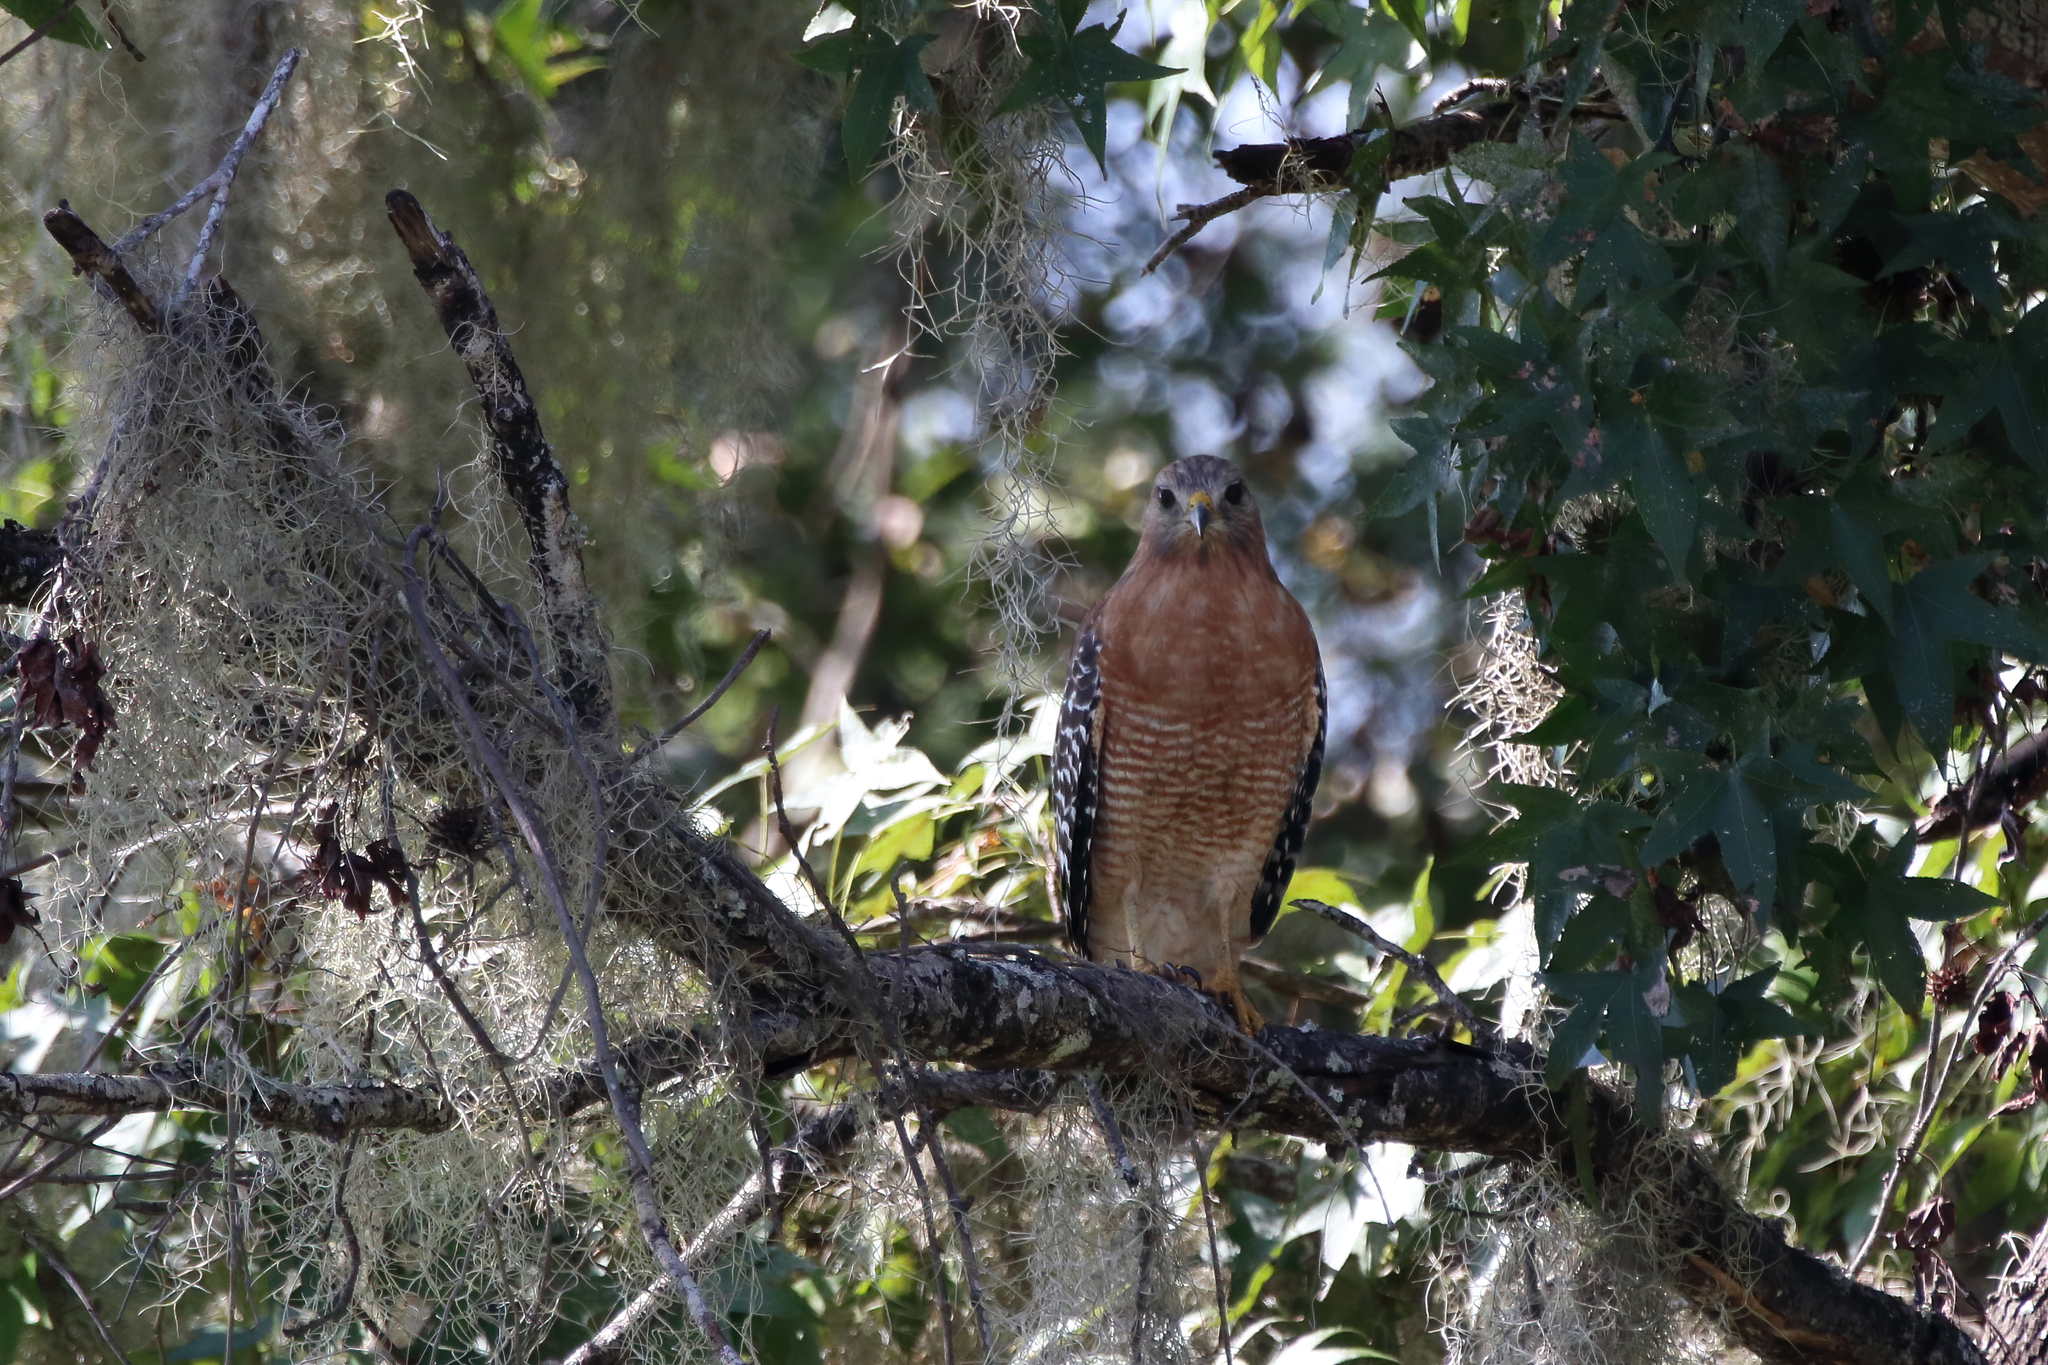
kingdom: Animalia
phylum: Chordata
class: Aves
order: Accipitriformes
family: Accipitridae
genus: Buteo
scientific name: Buteo lineatus
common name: Red-shouldered hawk
